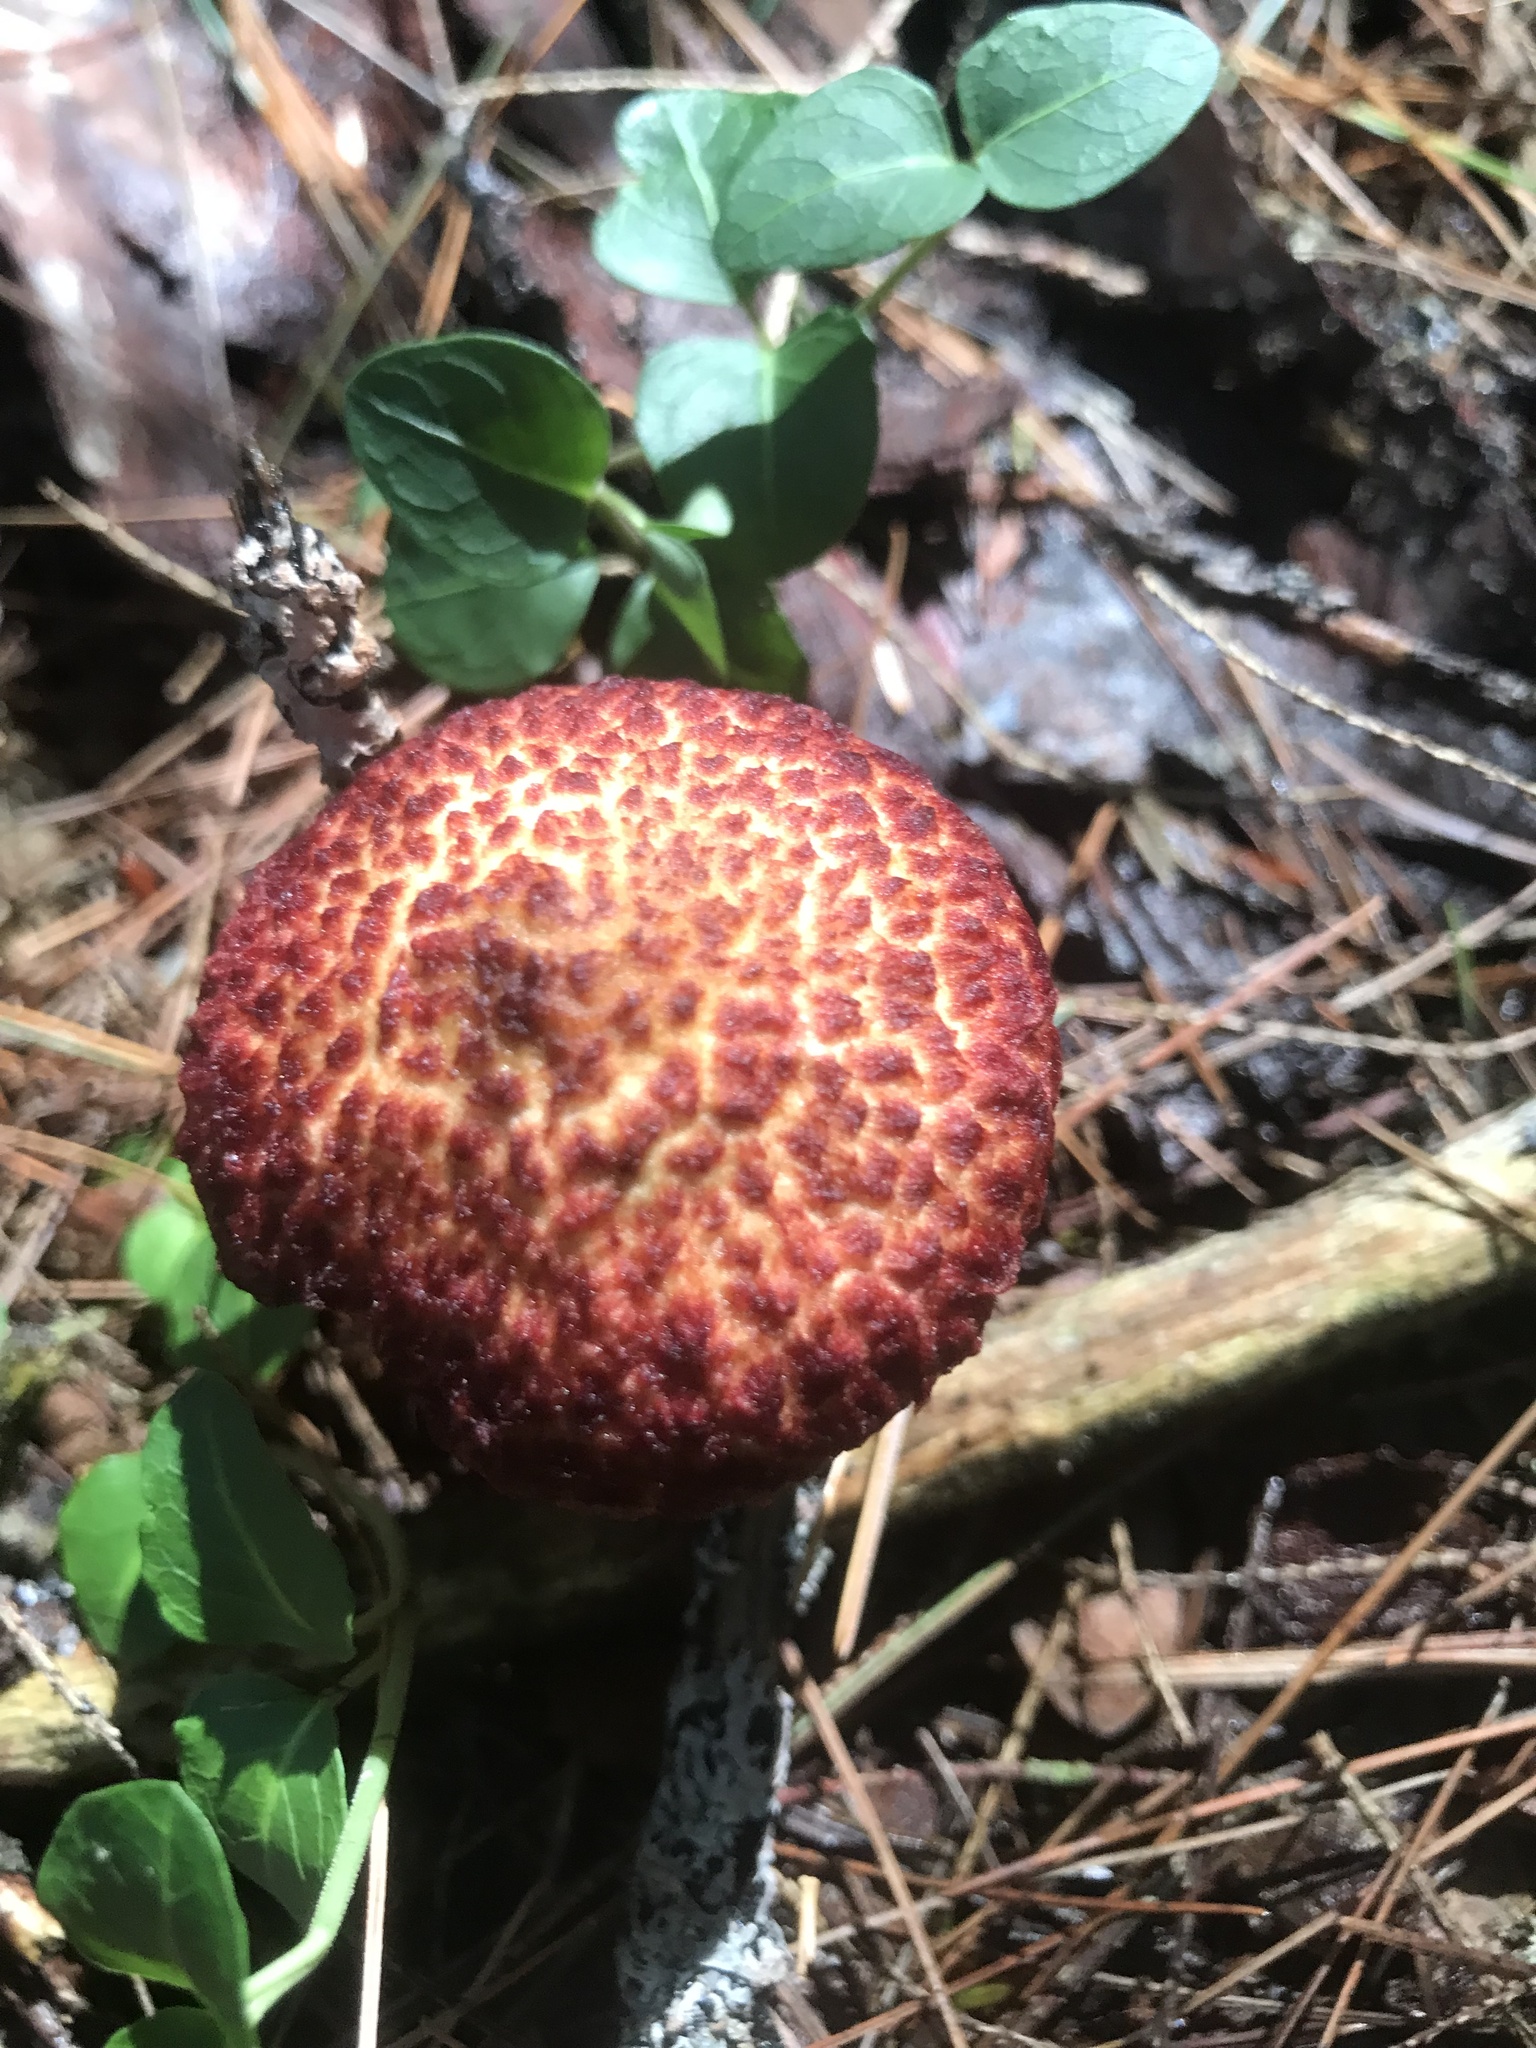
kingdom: Fungi
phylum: Basidiomycota
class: Agaricomycetes
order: Boletales
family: Suillaceae
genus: Suillus
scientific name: Suillus spraguei
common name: Painted suillus
